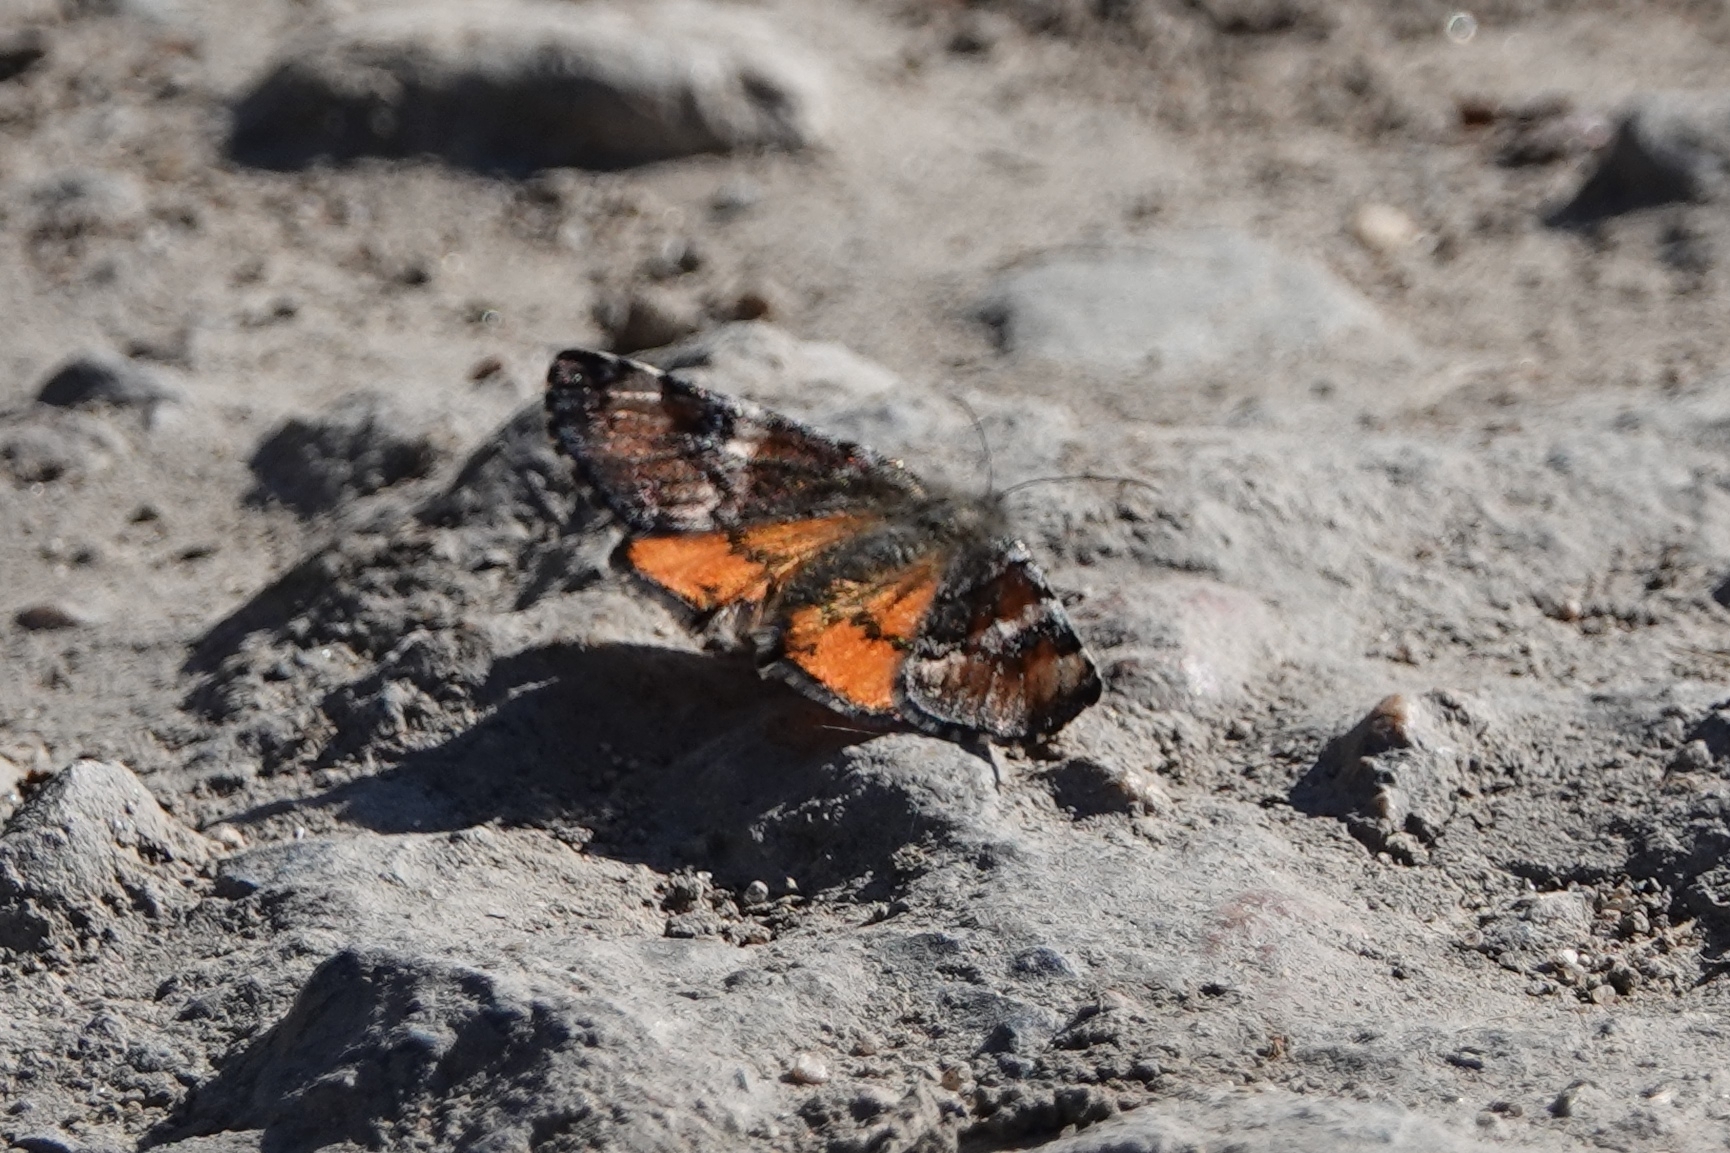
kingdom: Animalia
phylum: Arthropoda
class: Insecta
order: Lepidoptera
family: Geometridae
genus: Archiearis
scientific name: Archiearis parthenias
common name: Orange underwing
